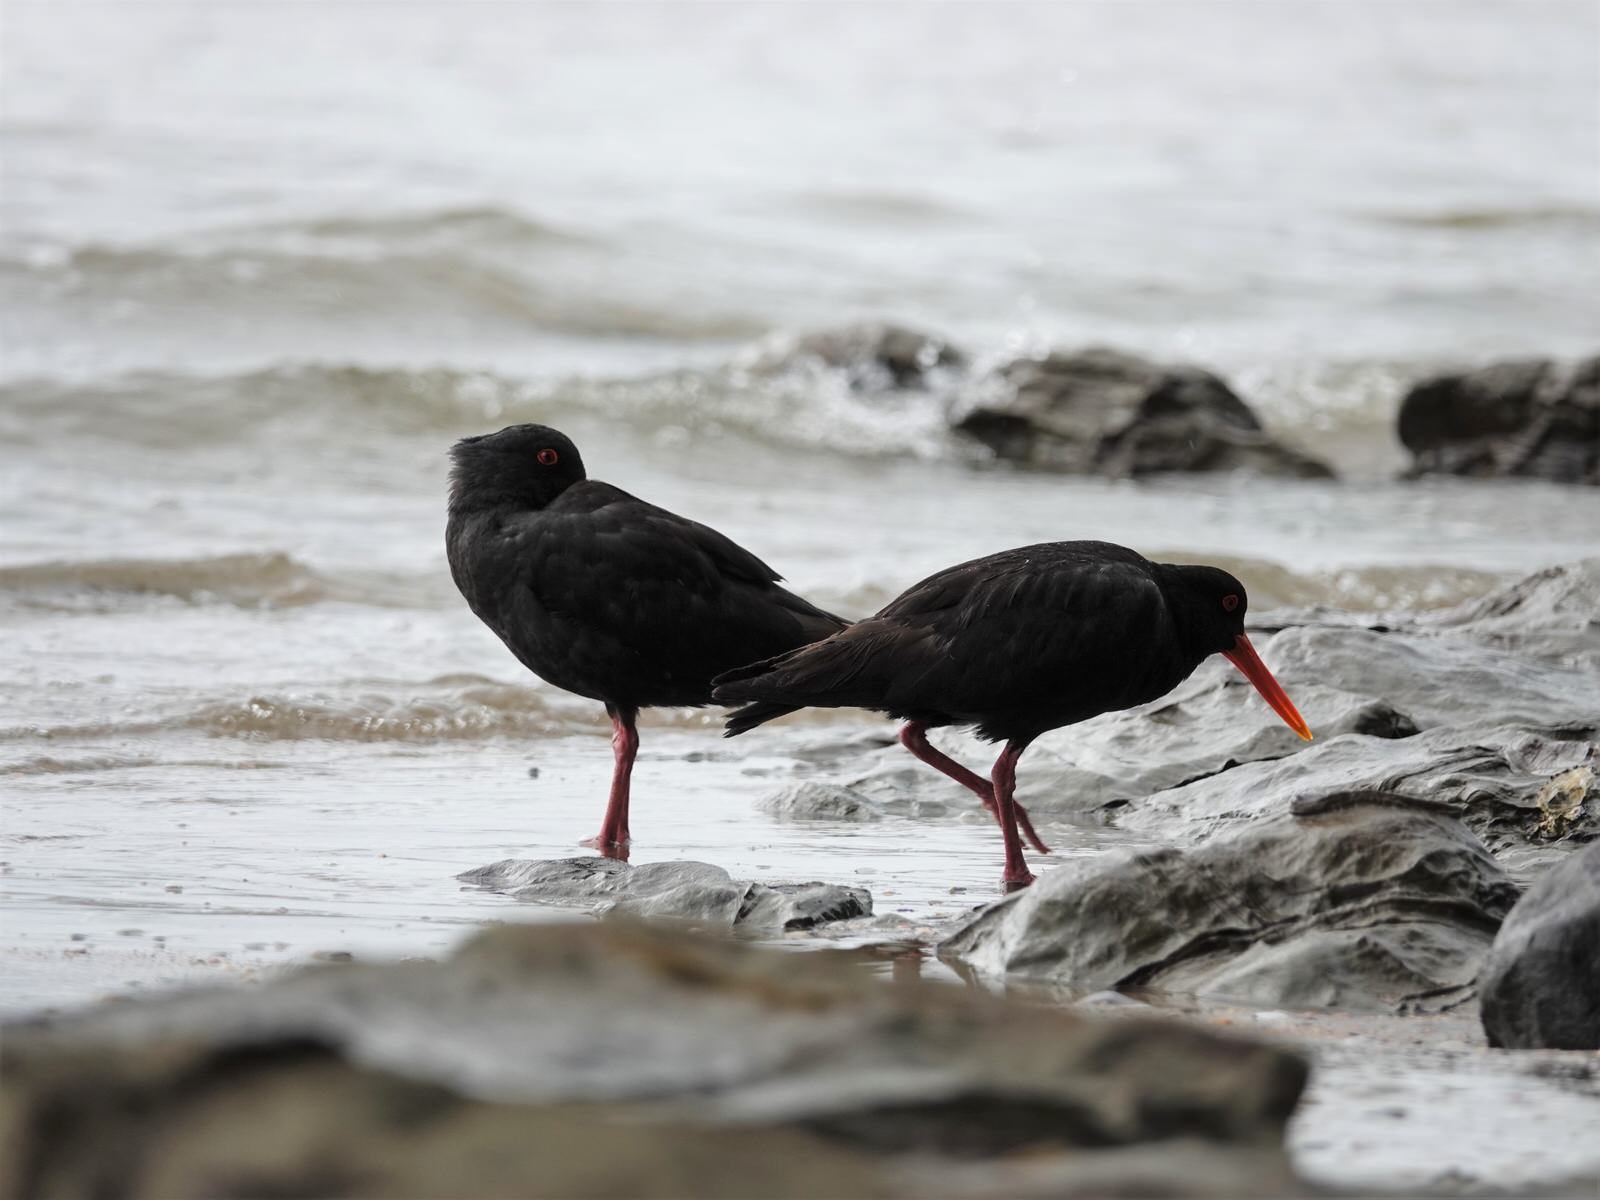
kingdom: Animalia
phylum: Chordata
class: Aves
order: Charadriiformes
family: Haematopodidae
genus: Haematopus
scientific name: Haematopus unicolor
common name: Variable oystercatcher
